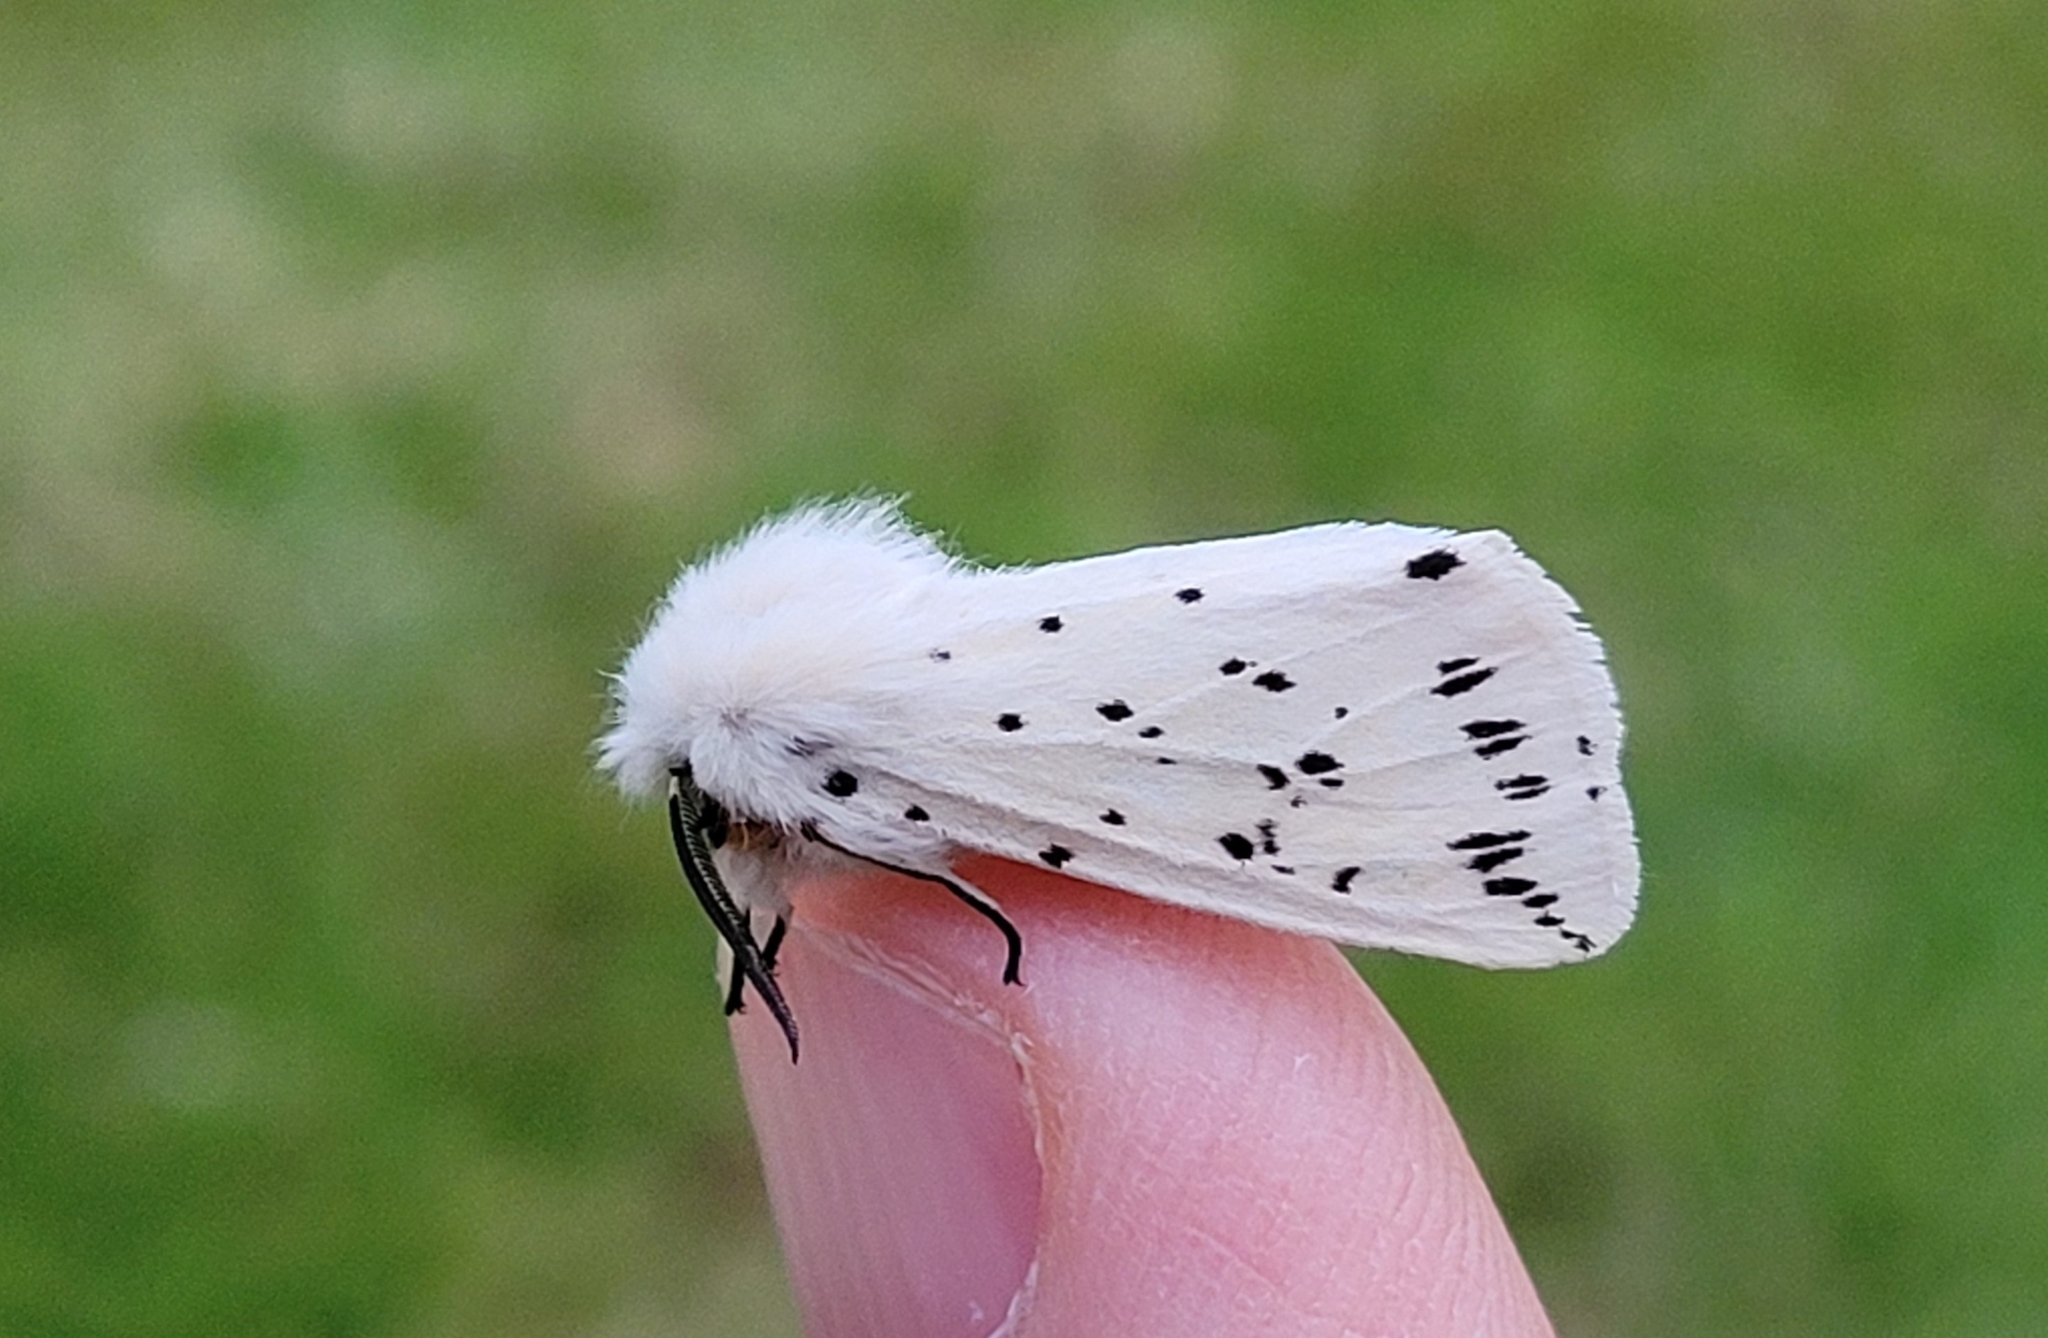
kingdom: Animalia
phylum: Arthropoda
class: Insecta
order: Lepidoptera
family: Erebidae
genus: Spilosoma
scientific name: Spilosoma lubricipeda
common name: White ermine
